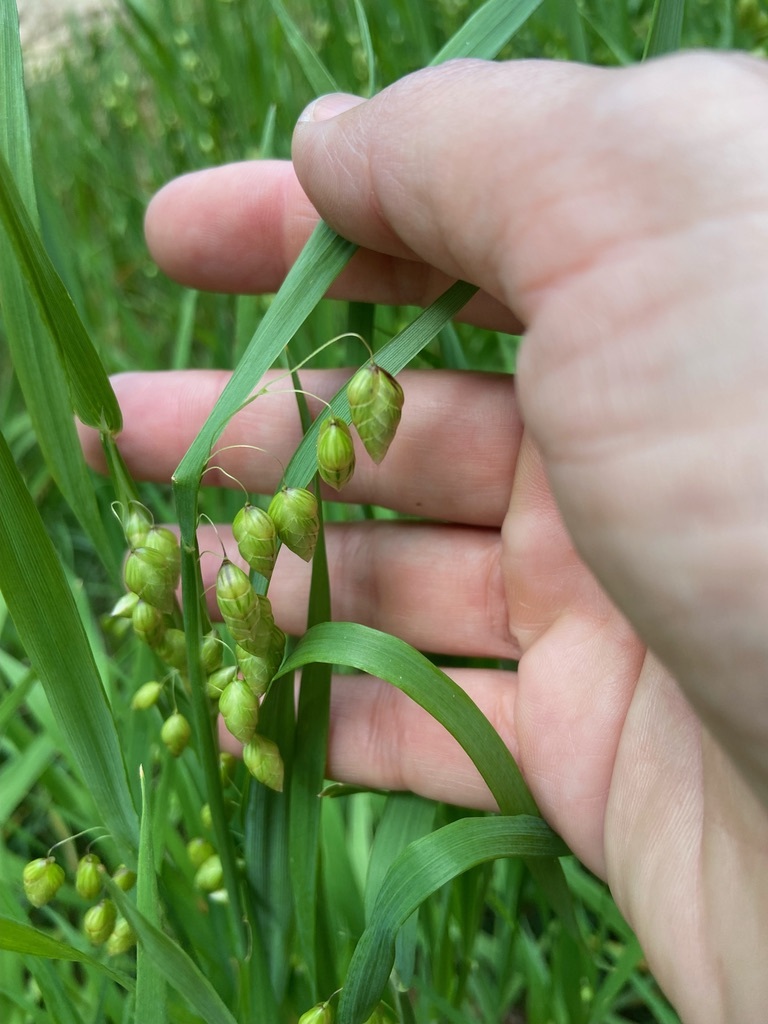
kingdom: Plantae
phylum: Tracheophyta
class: Liliopsida
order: Poales
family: Poaceae
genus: Briza
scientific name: Briza maxima
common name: Big quakinggrass
